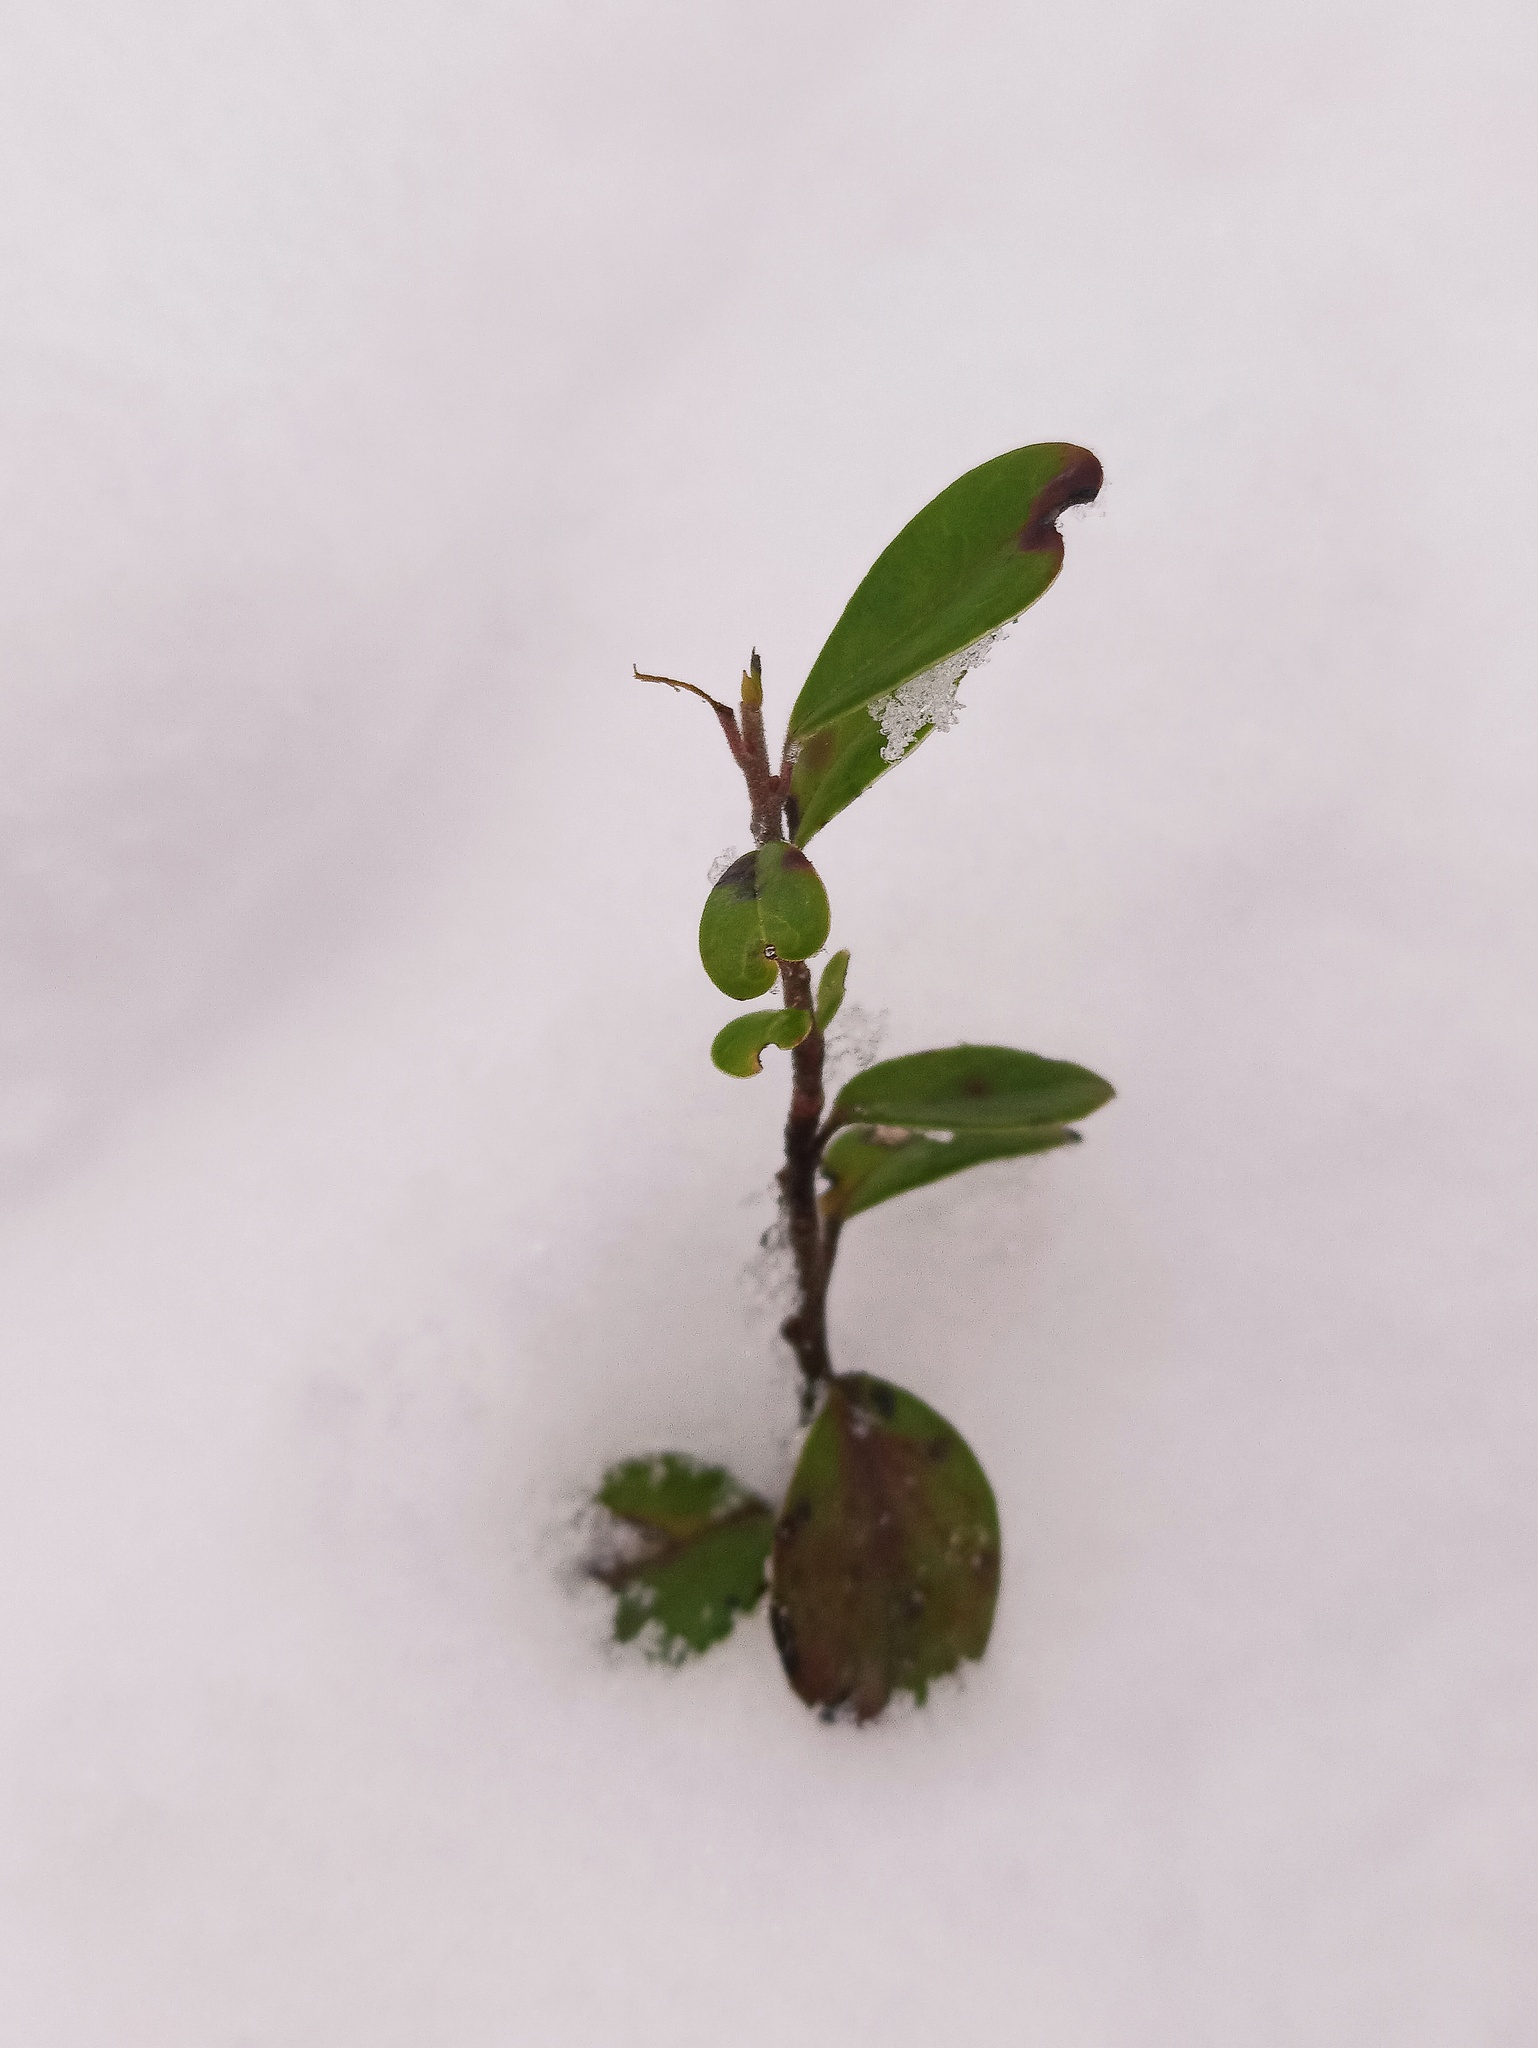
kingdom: Plantae
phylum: Tracheophyta
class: Magnoliopsida
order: Ericales
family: Ericaceae
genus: Vaccinium
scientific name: Vaccinium vitis-idaea
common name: Cowberry
